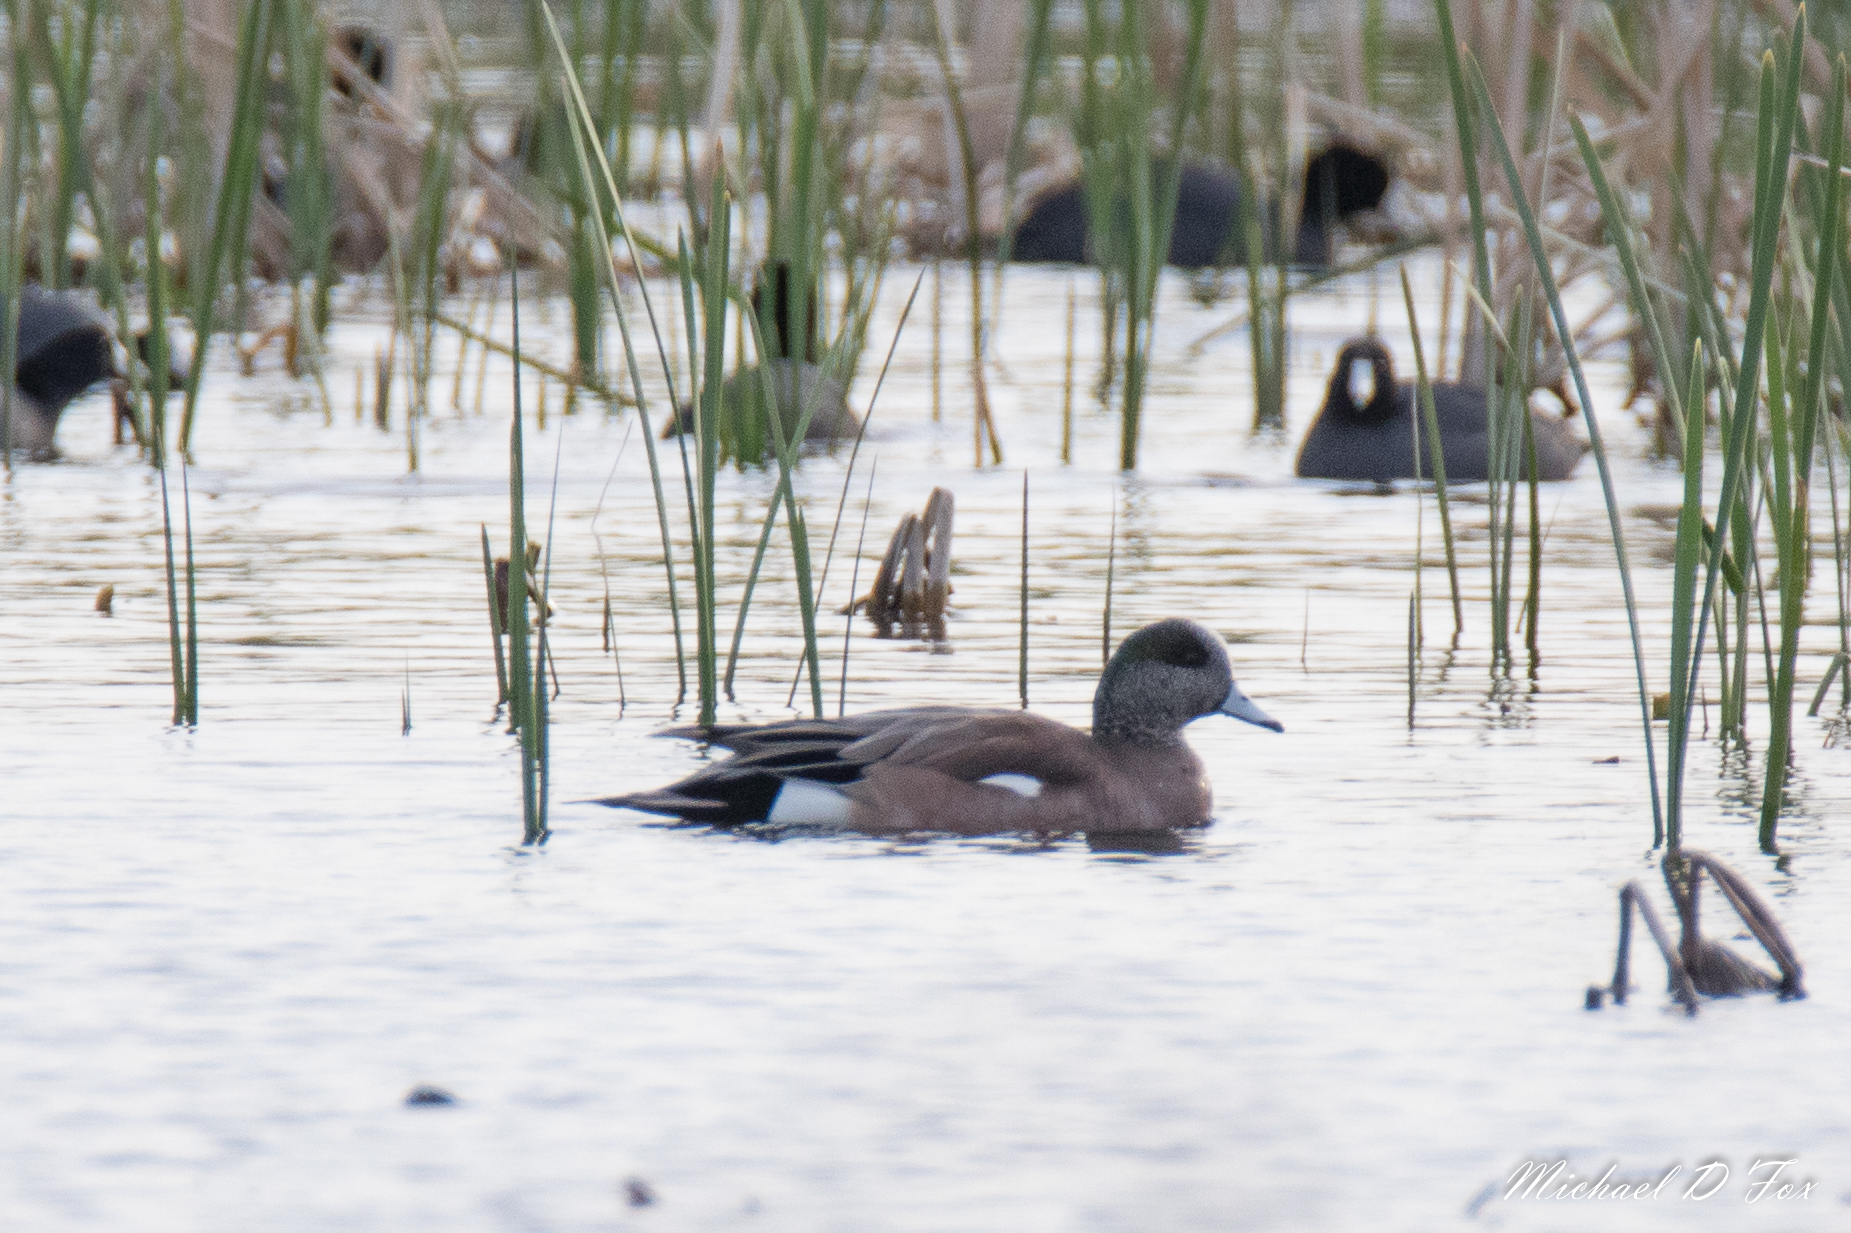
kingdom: Animalia
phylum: Chordata
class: Aves
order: Anseriformes
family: Anatidae
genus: Mareca
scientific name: Mareca americana
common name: American wigeon
